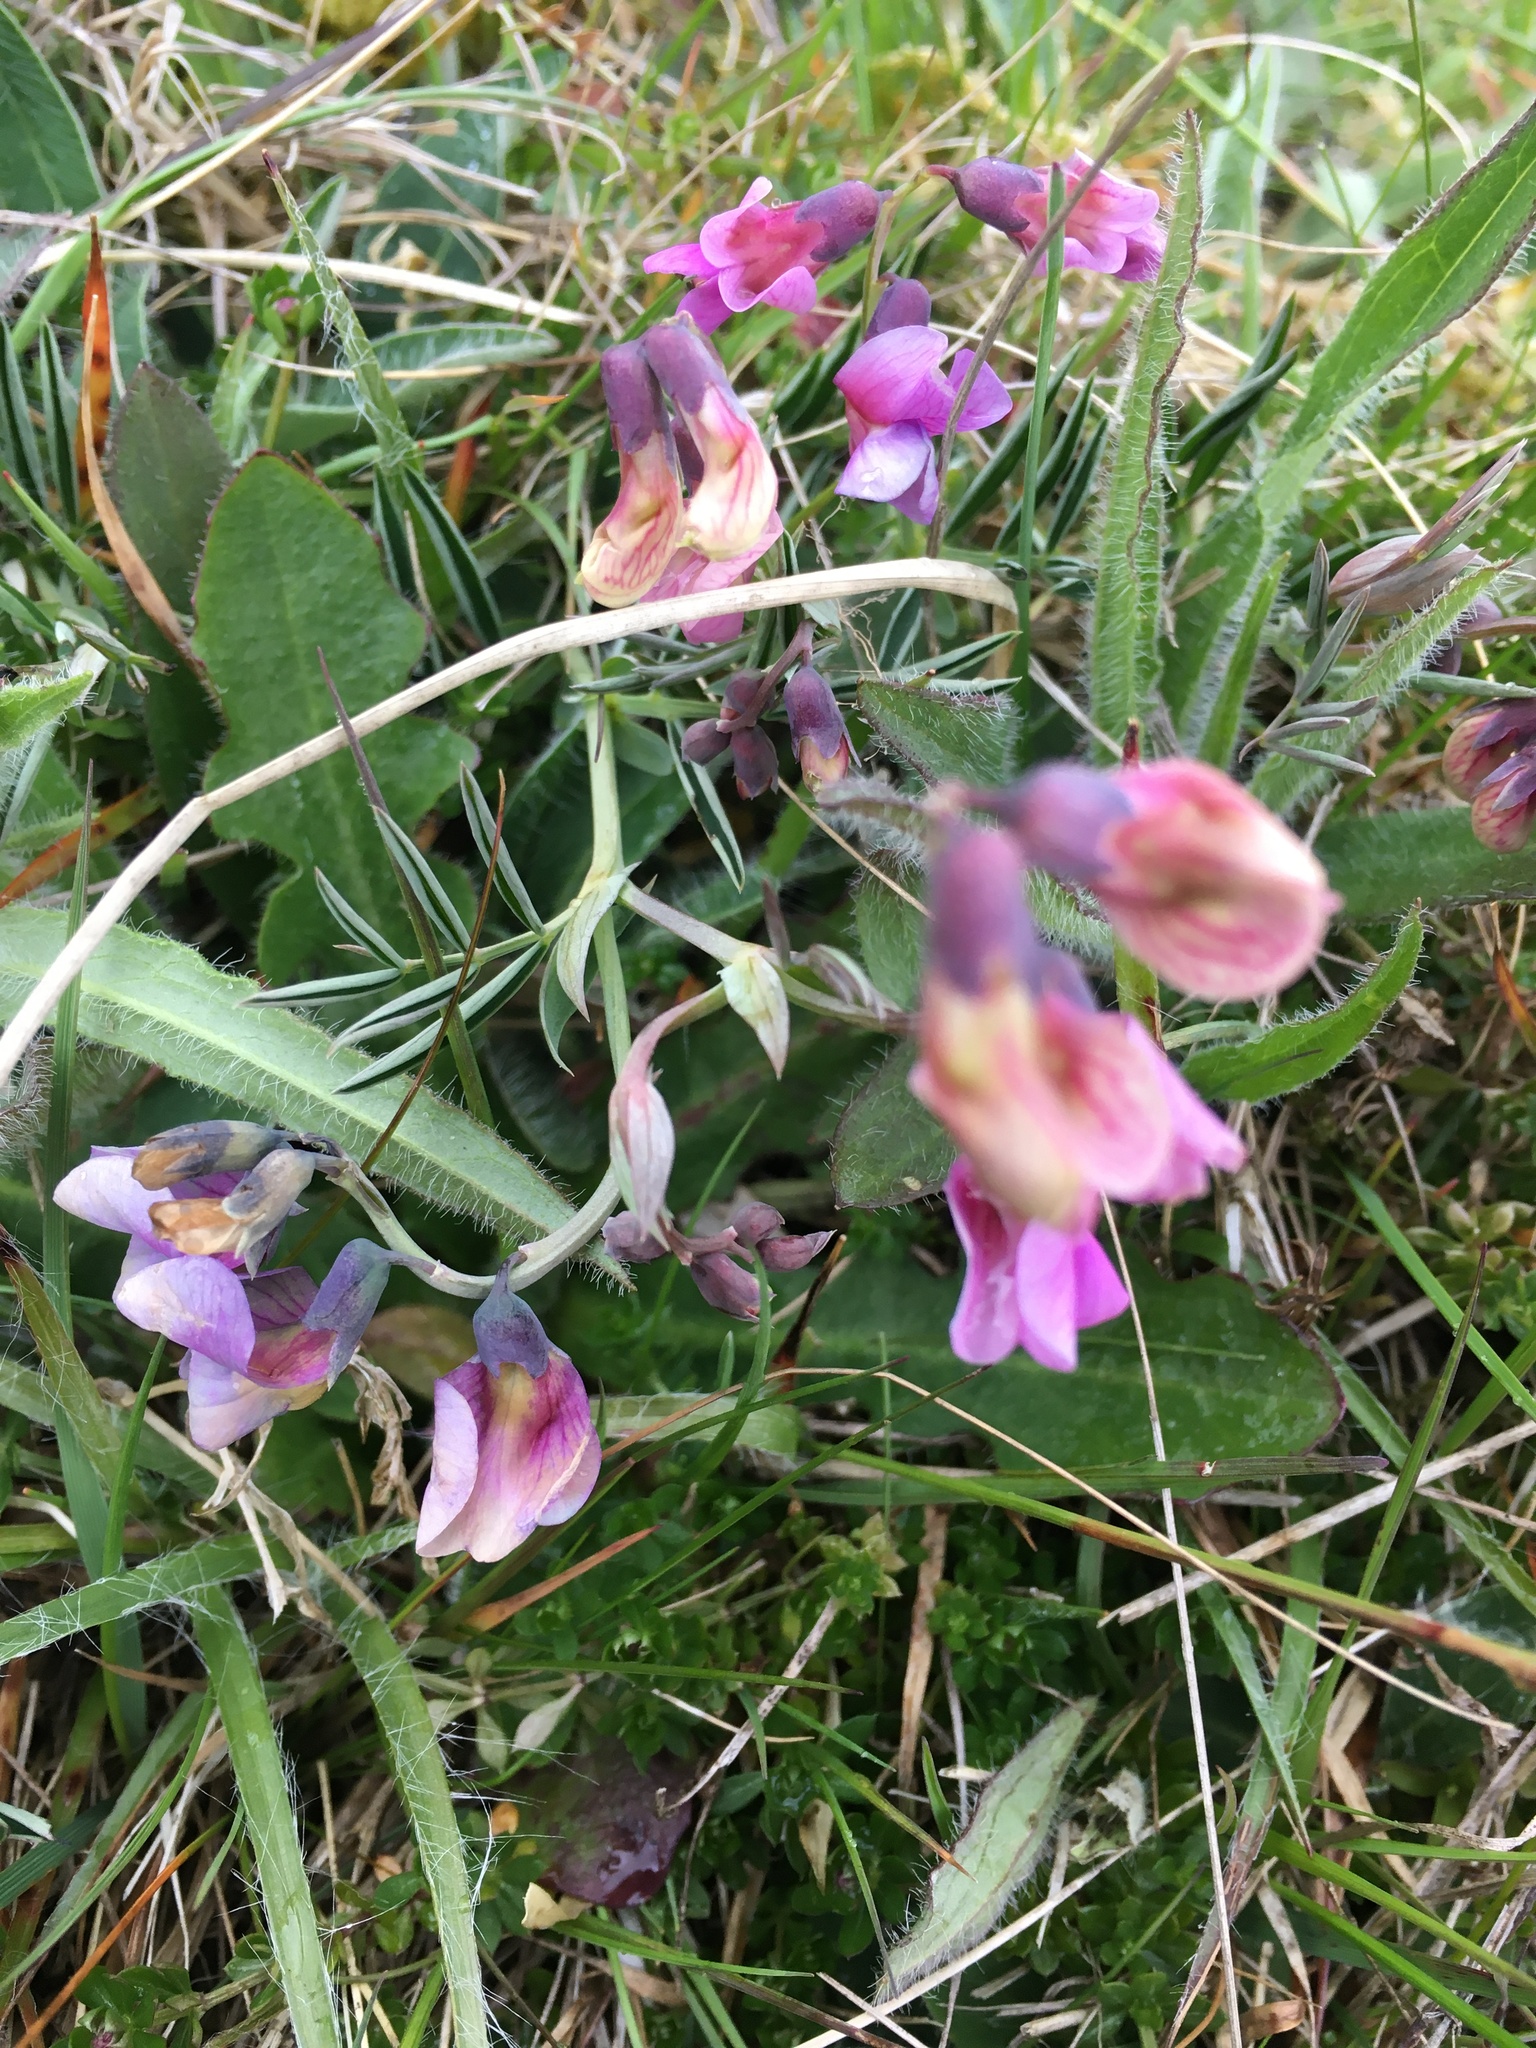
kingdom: Plantae
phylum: Tracheophyta
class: Magnoliopsida
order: Fabales
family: Fabaceae
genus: Lathyrus
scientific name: Lathyrus linifolius
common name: Bitter-vetch
